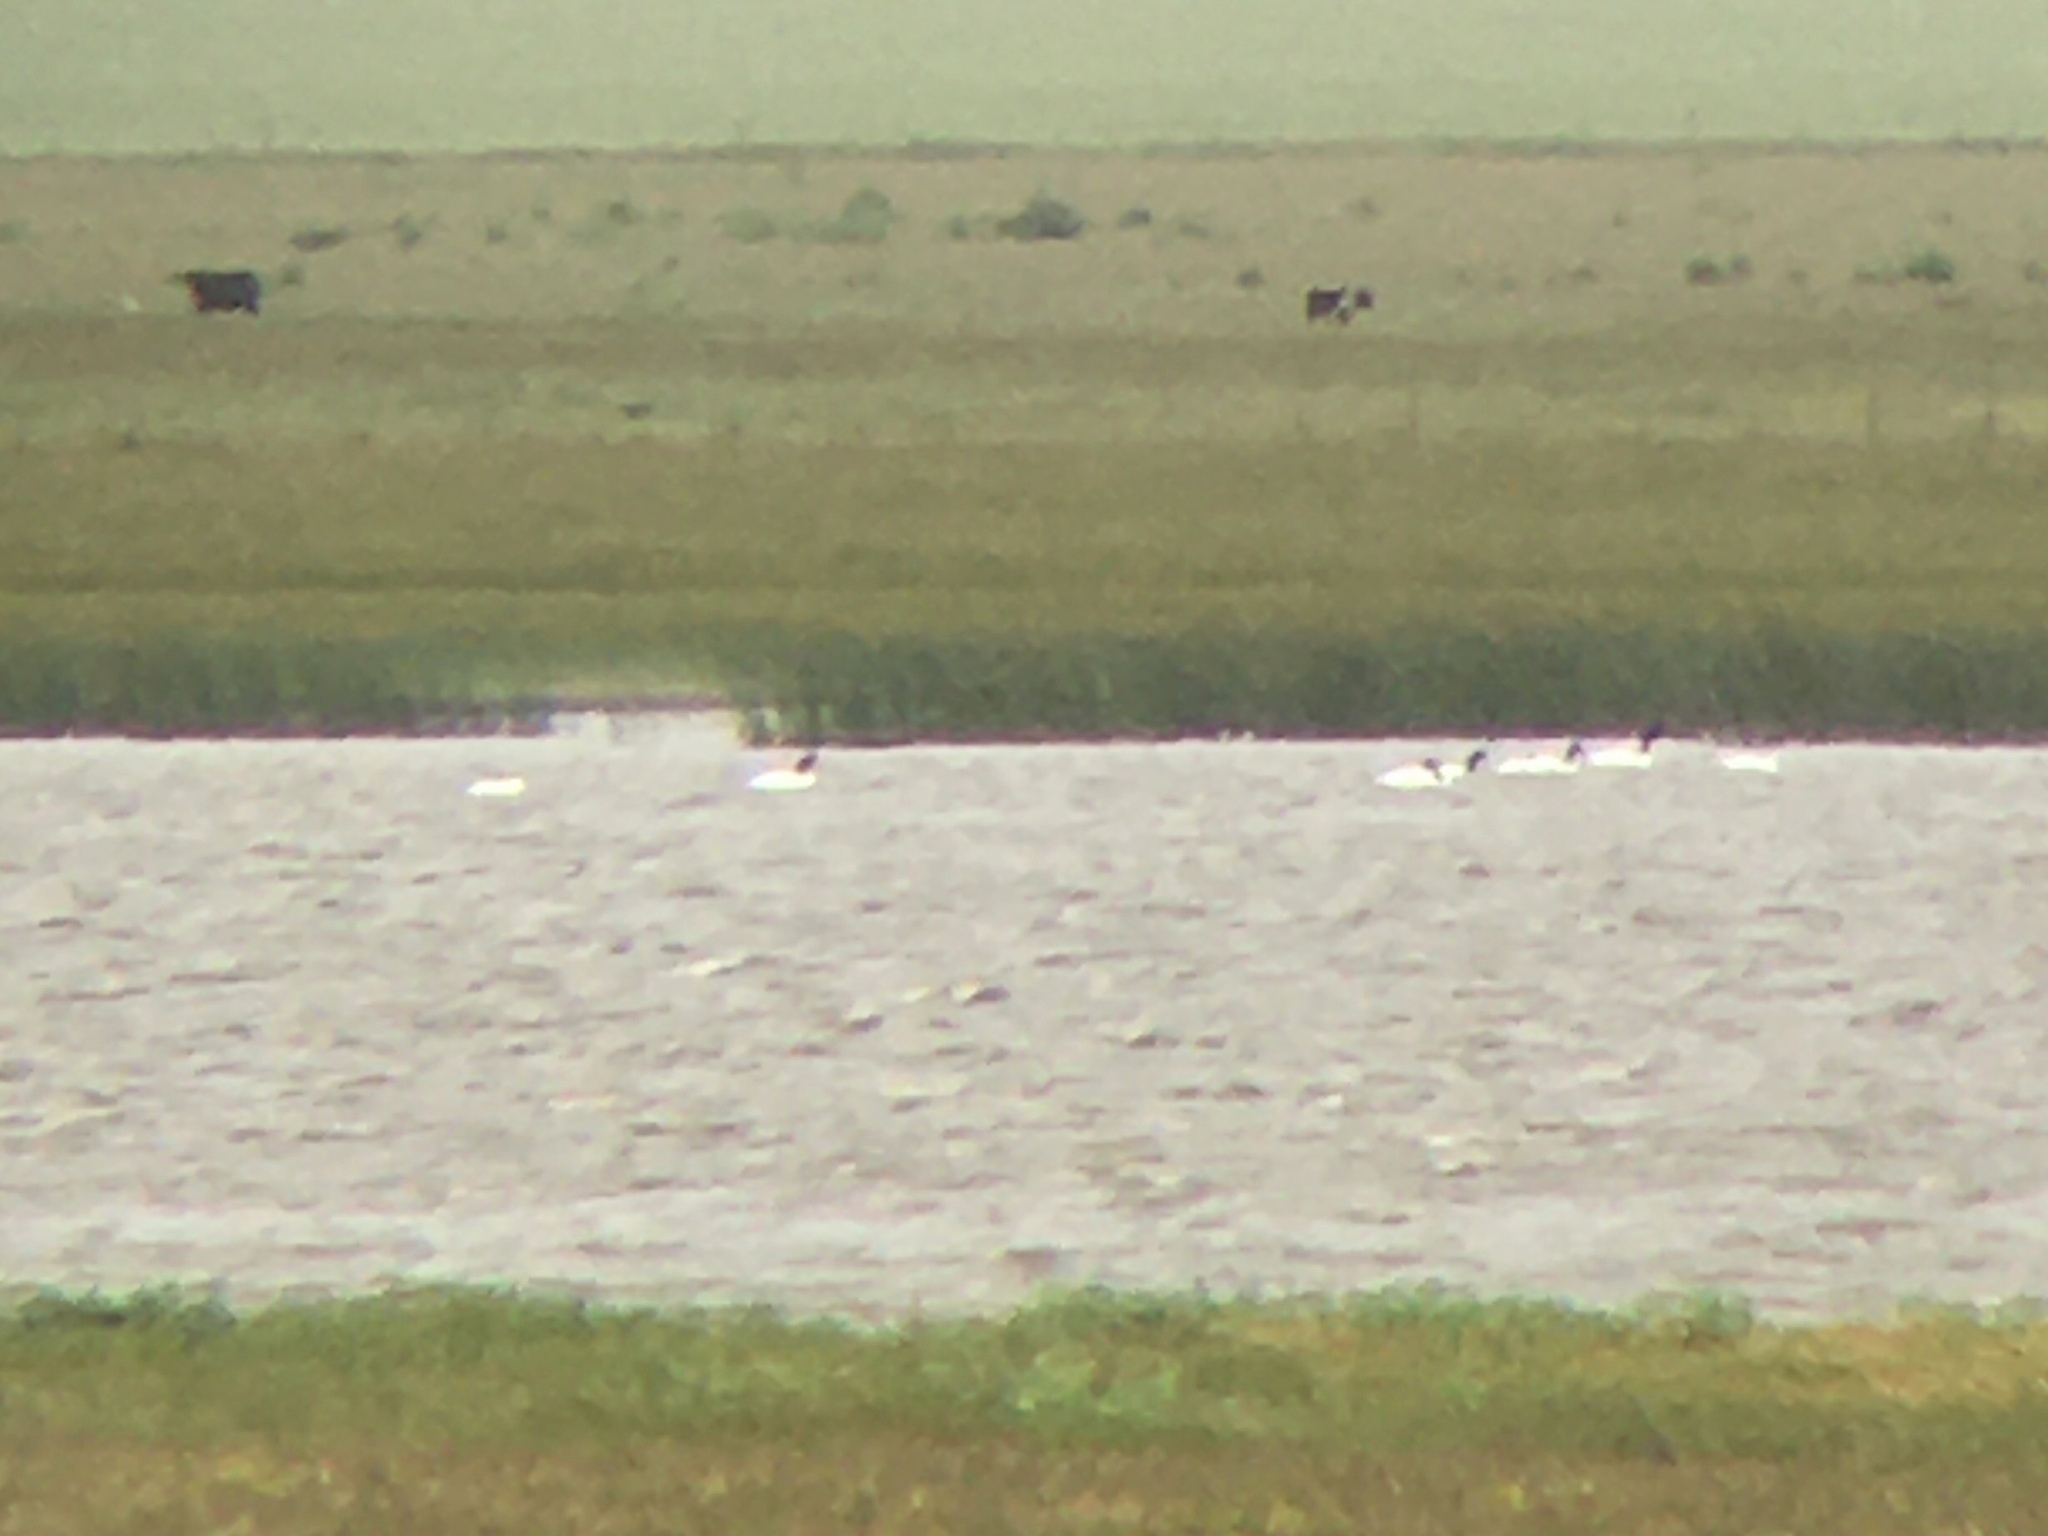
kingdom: Animalia
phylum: Chordata
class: Aves
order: Anseriformes
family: Anatidae
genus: Cygnus
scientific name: Cygnus melancoryphus
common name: Black-necked swan
